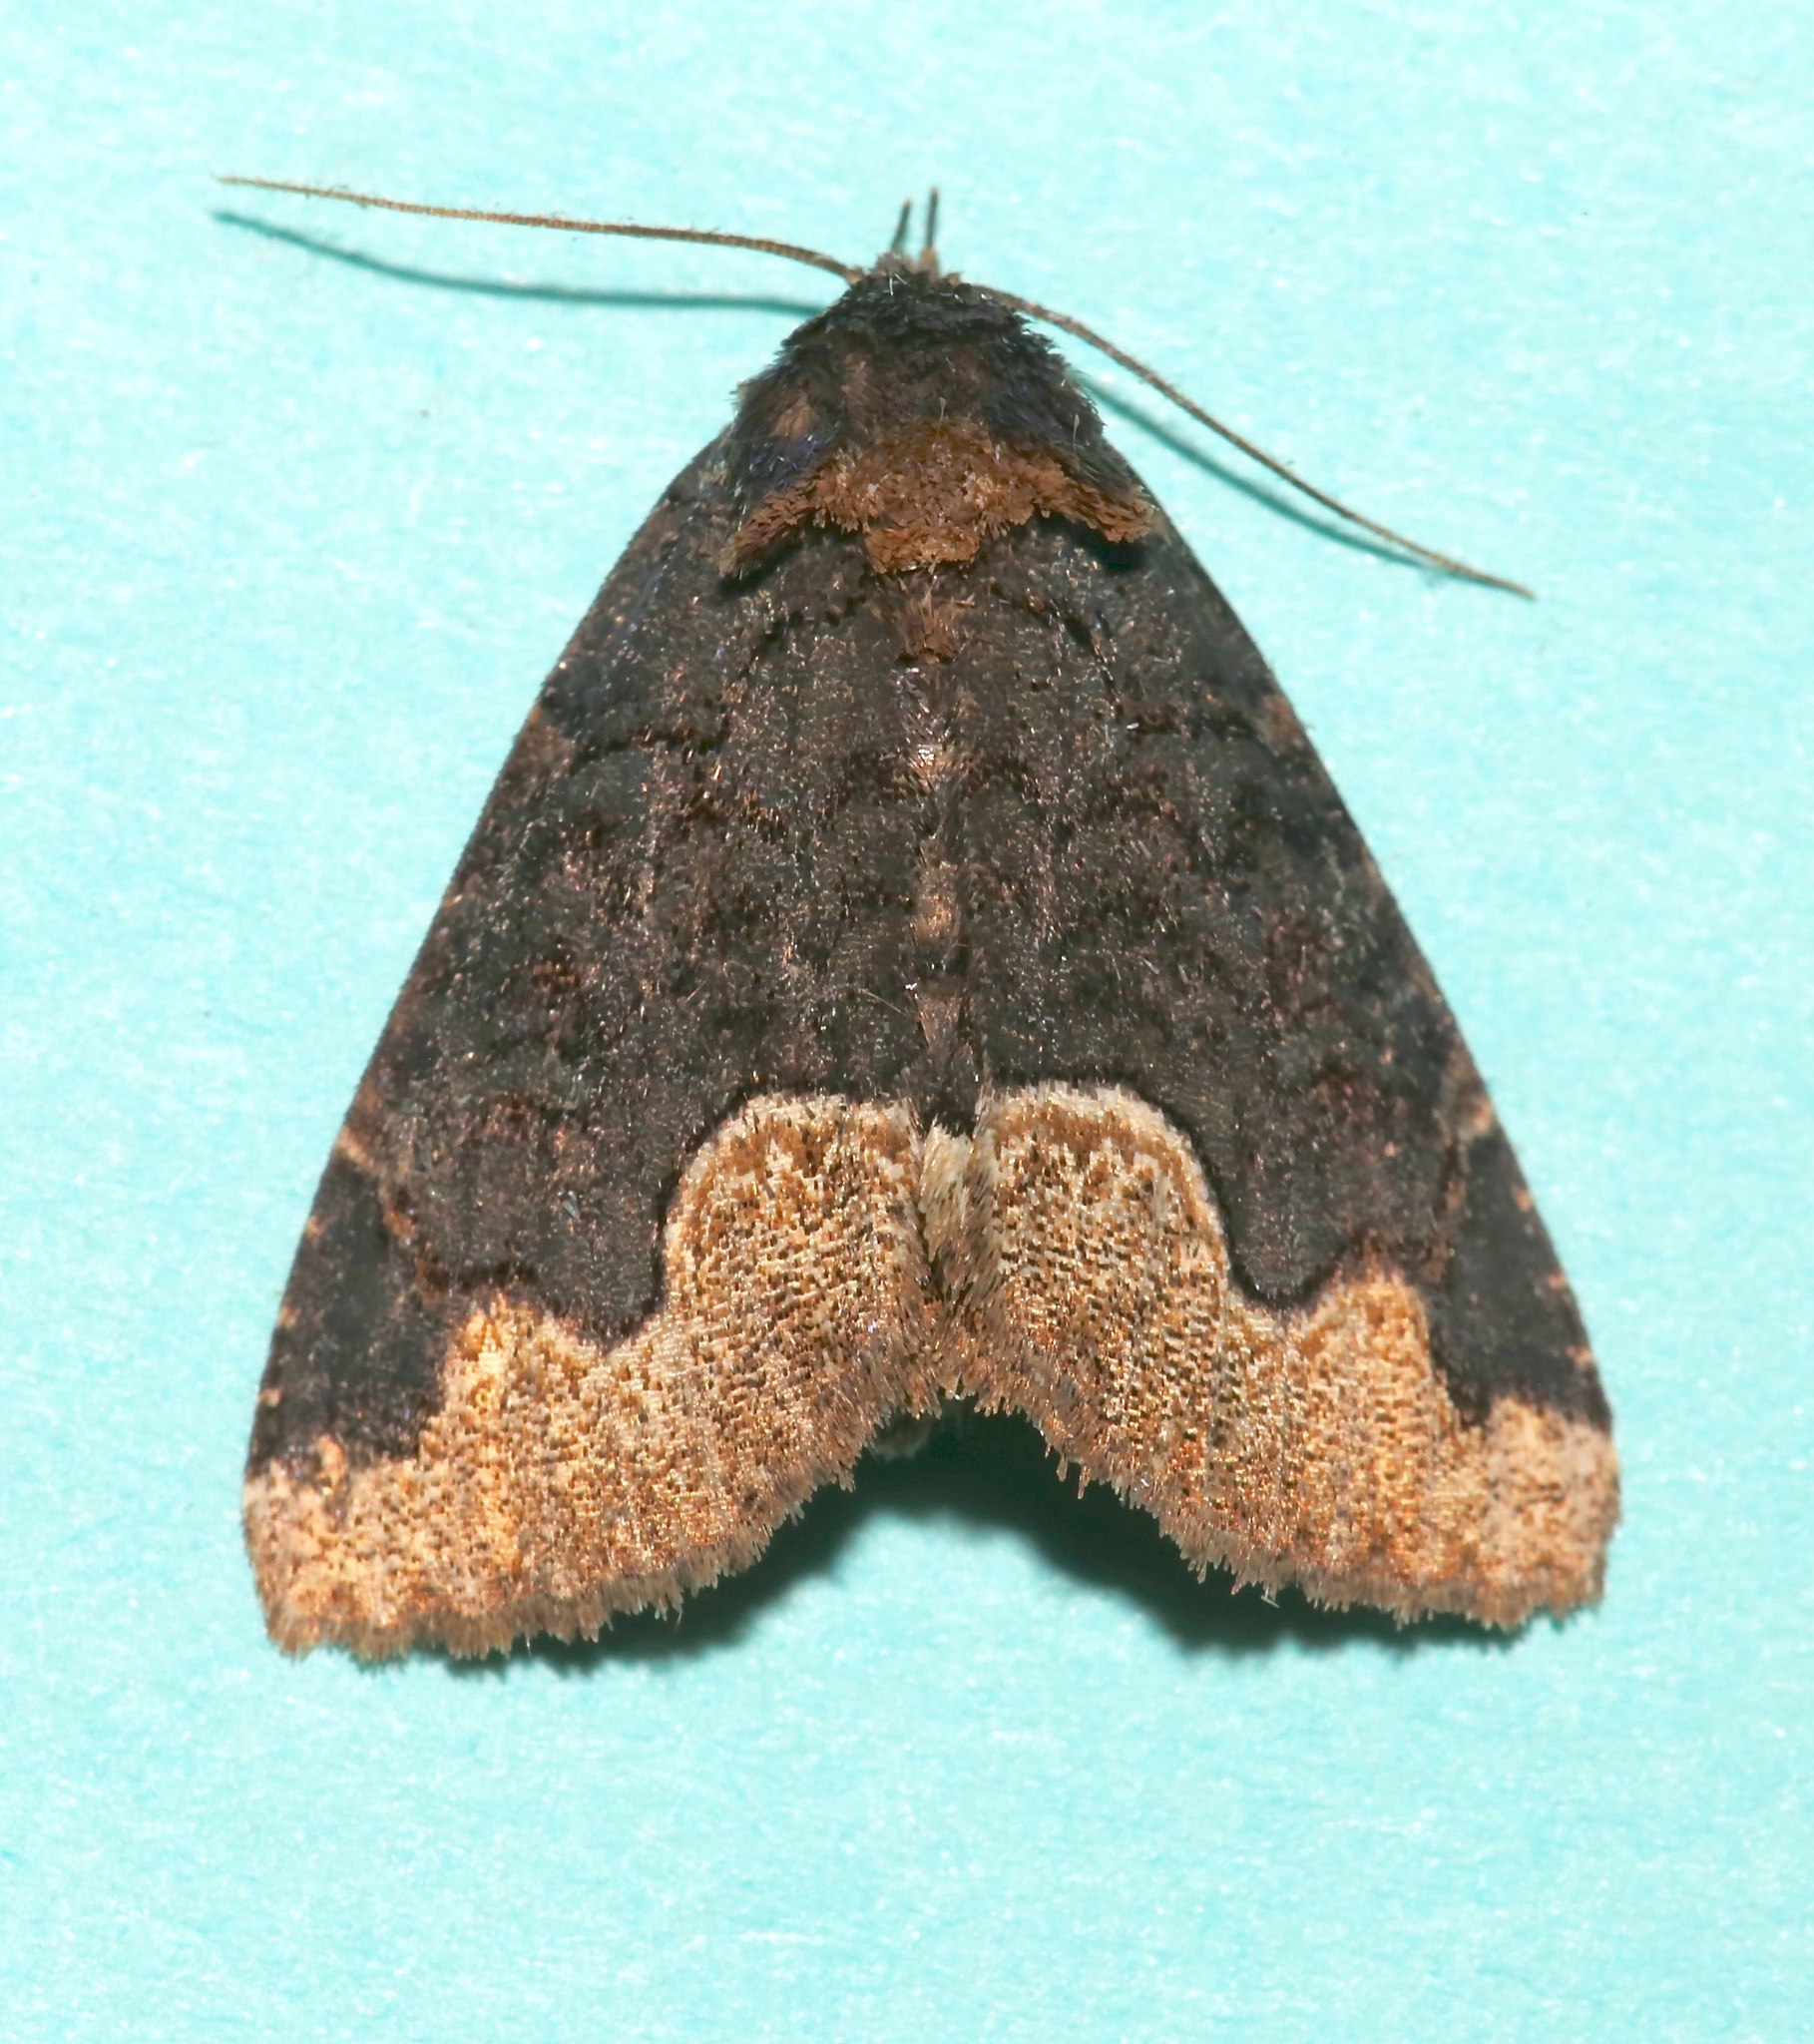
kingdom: Animalia
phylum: Arthropoda
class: Insecta
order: Lepidoptera
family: Erebidae
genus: Zale
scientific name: Zale horrida
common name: Horrid zale moth
